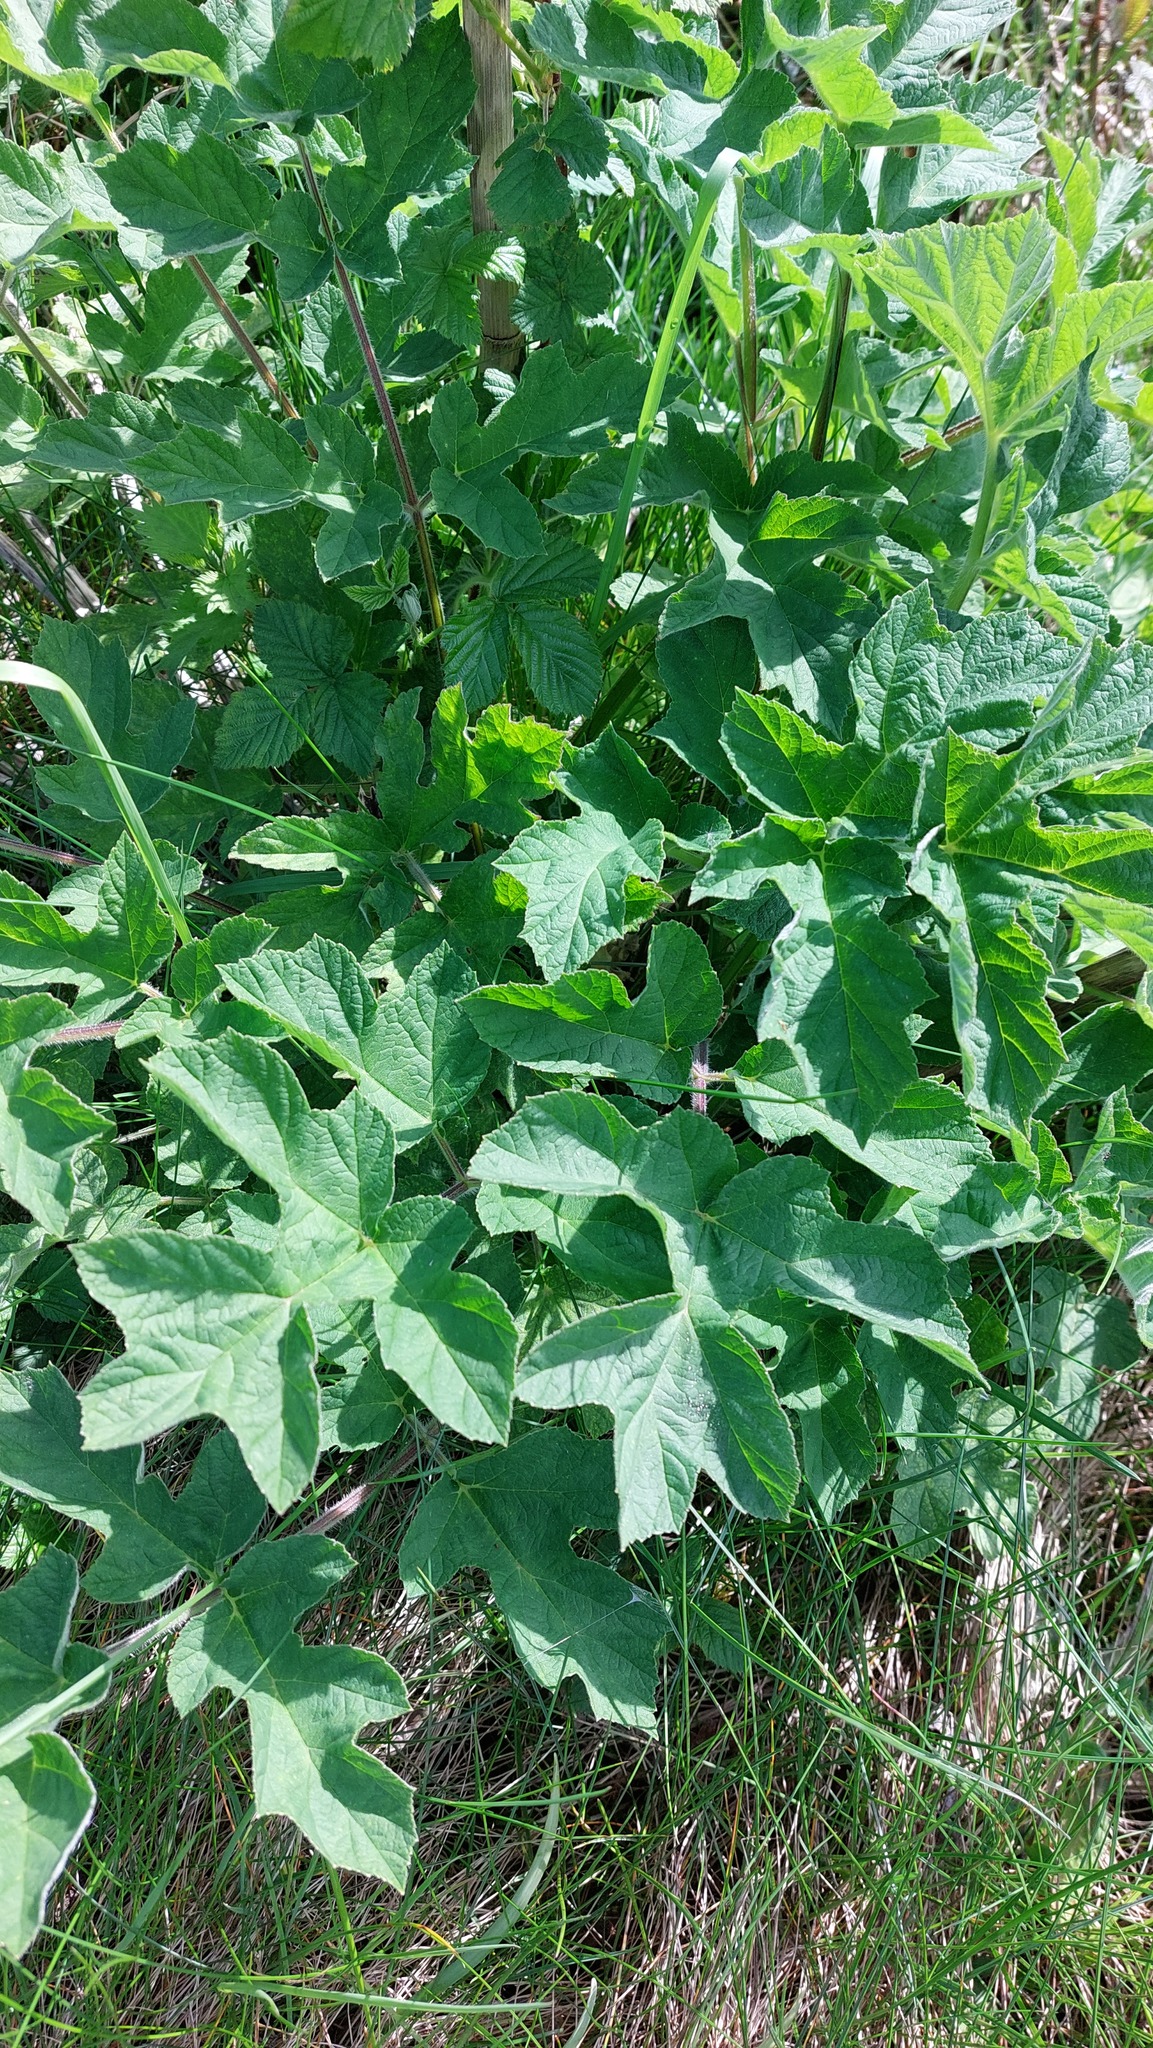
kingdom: Plantae
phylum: Tracheophyta
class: Magnoliopsida
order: Apiales
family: Apiaceae
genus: Heracleum
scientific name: Heracleum sphondylium
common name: Hogweed
